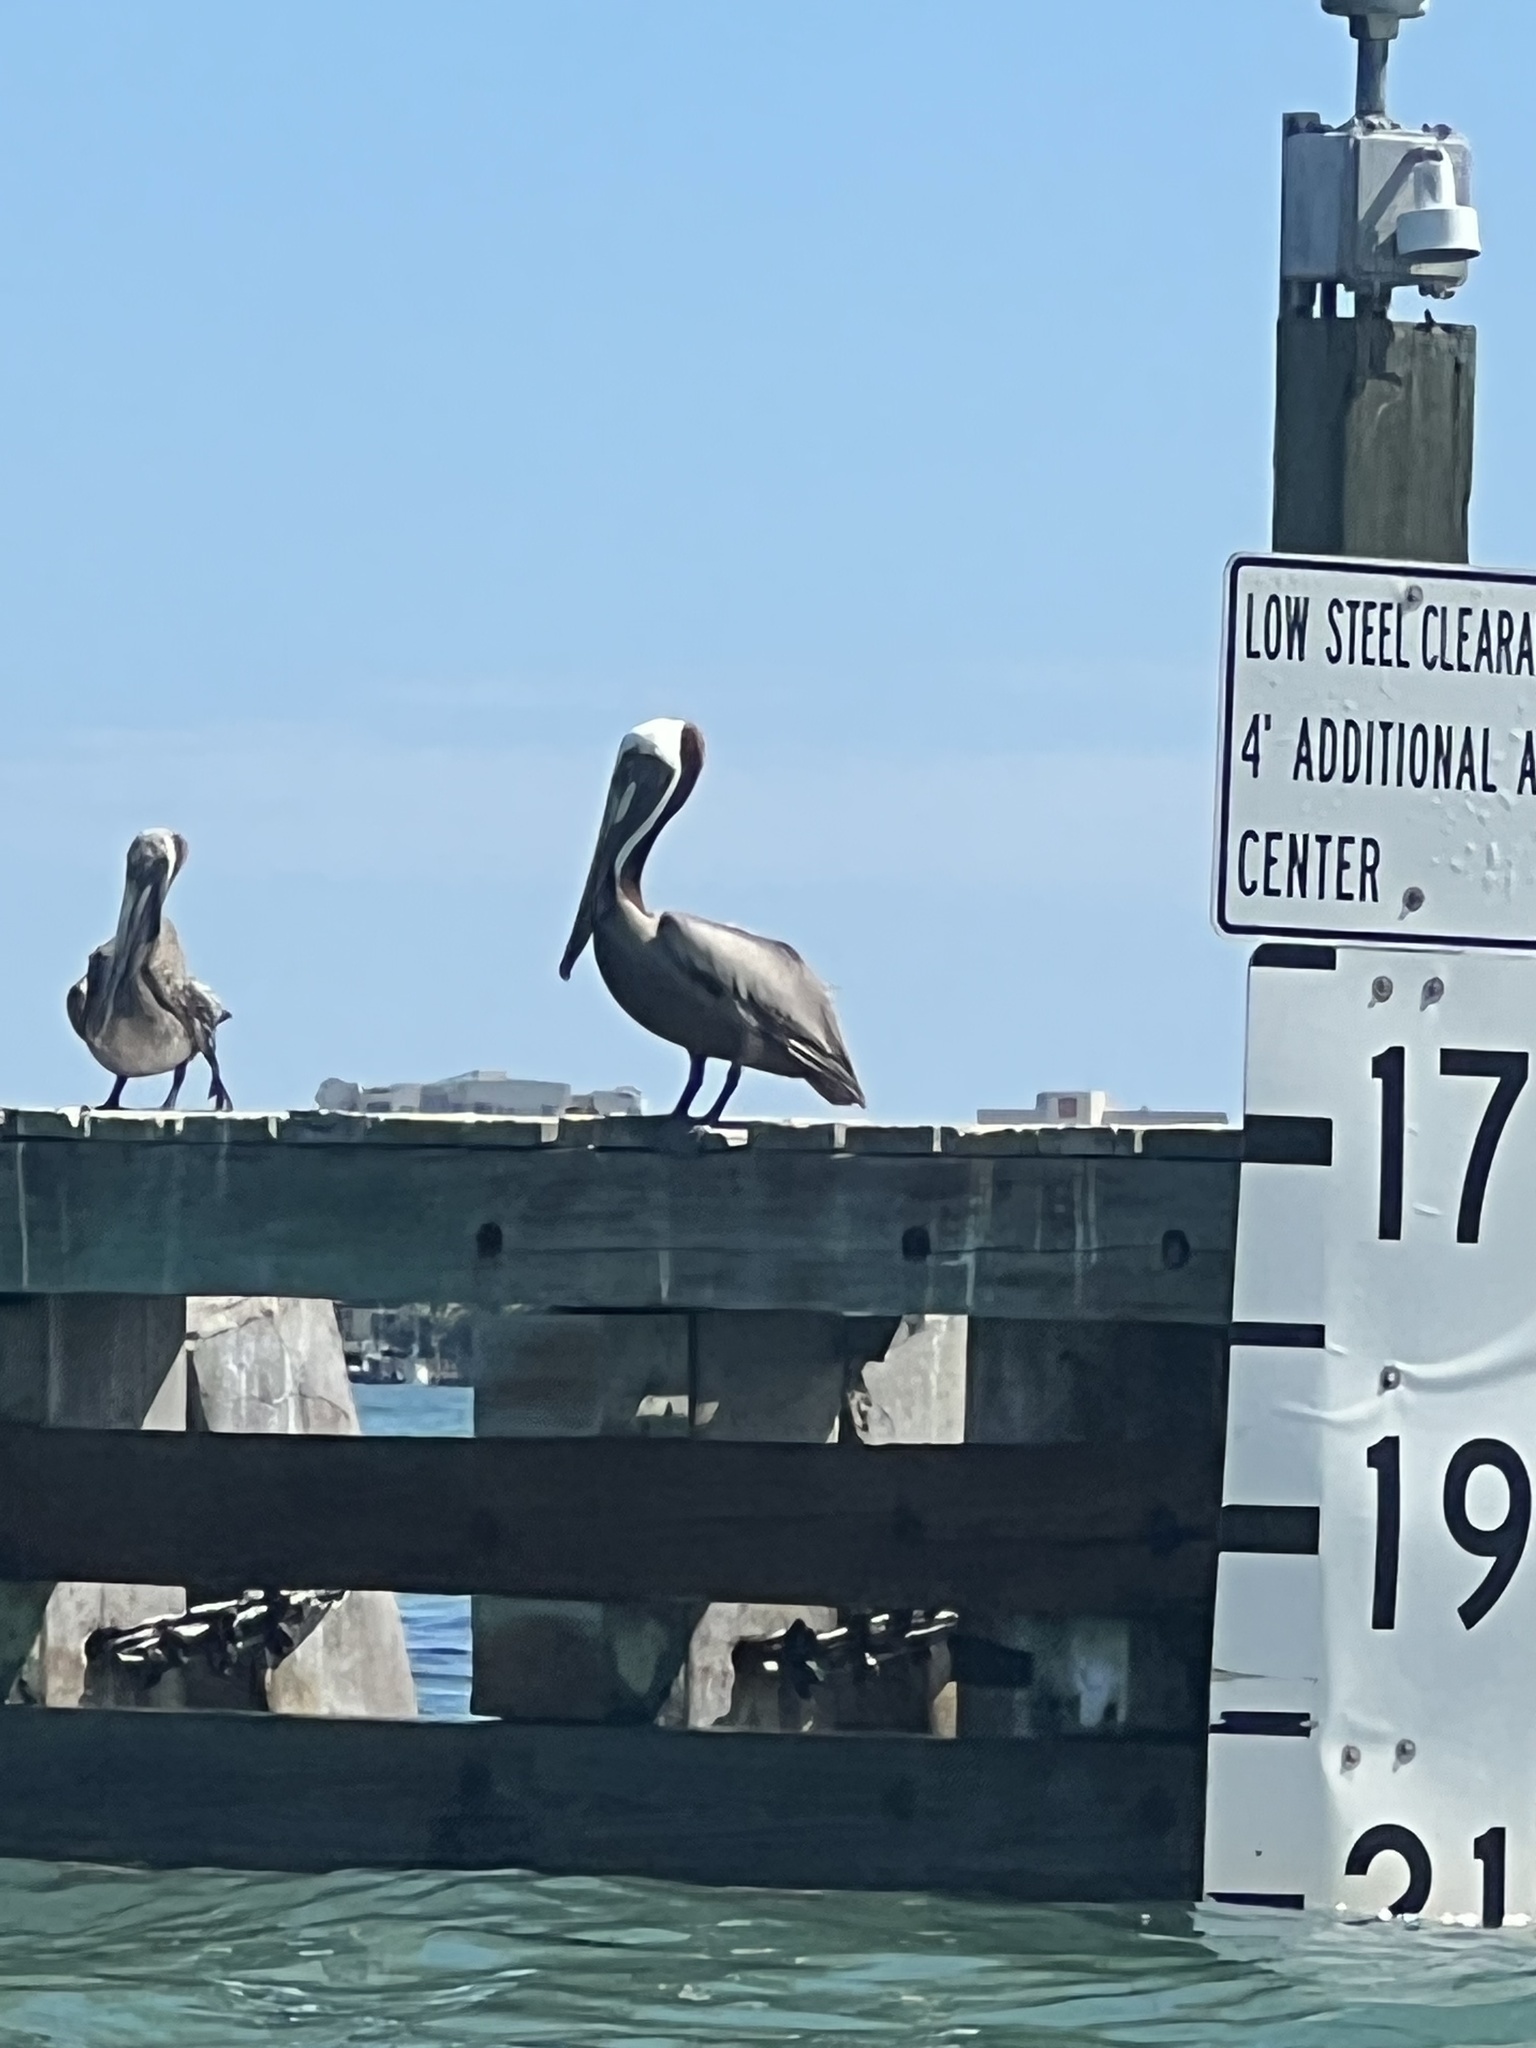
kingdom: Animalia
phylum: Chordata
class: Aves
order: Pelecaniformes
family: Pelecanidae
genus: Pelecanus
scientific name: Pelecanus occidentalis
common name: Brown pelican
